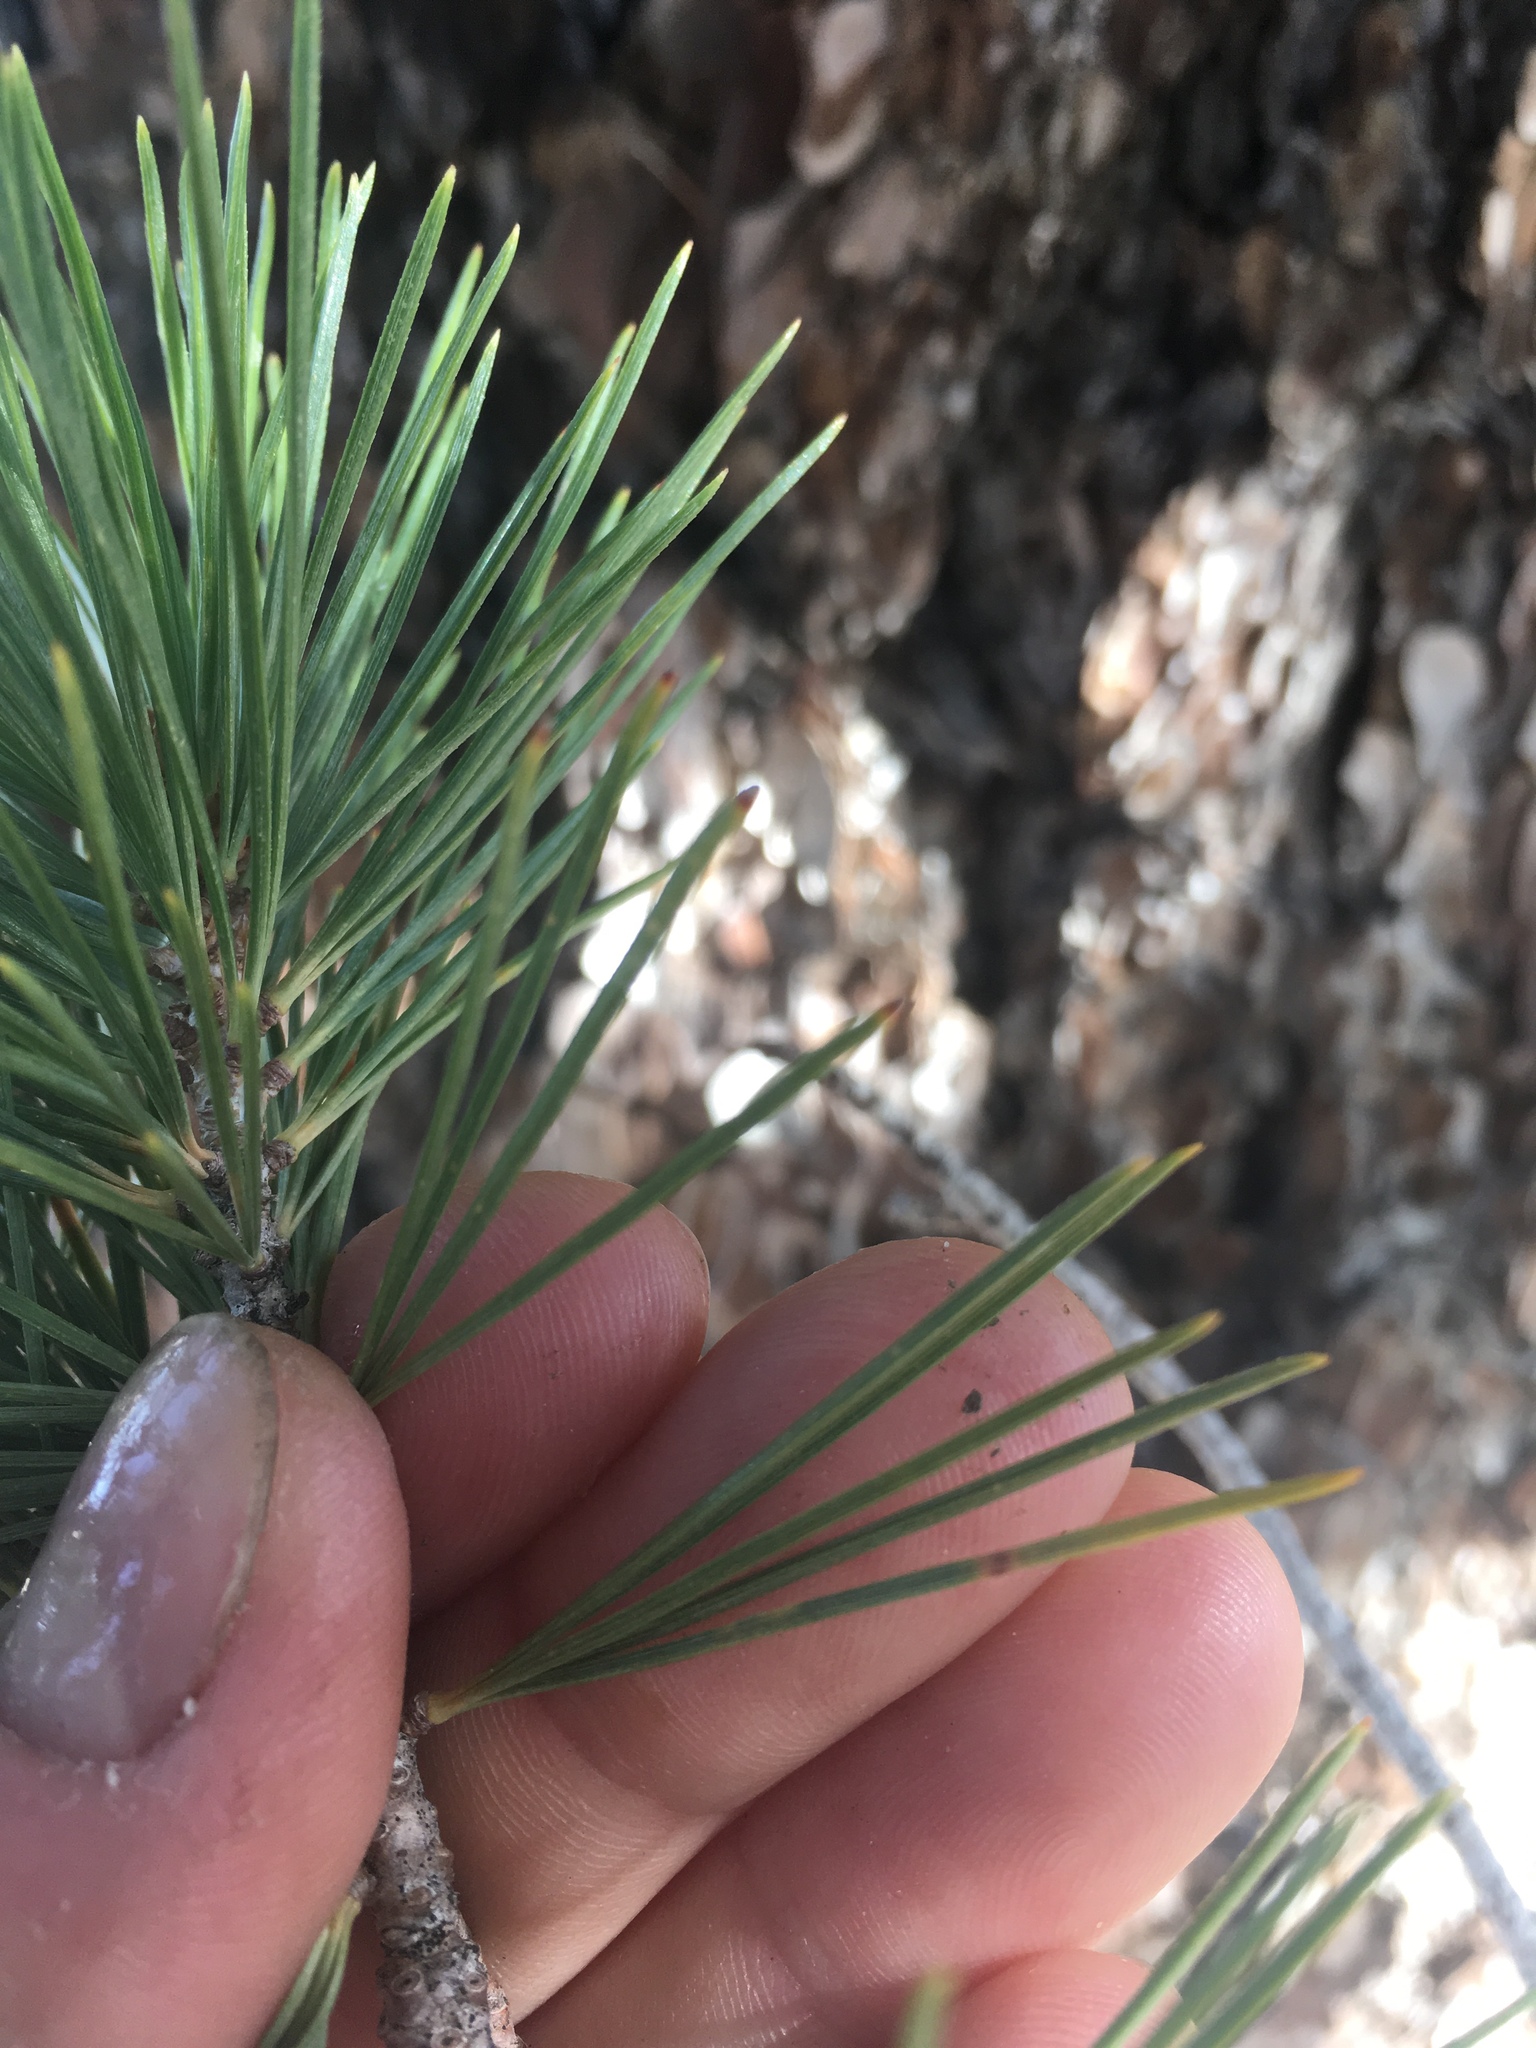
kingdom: Plantae
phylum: Tracheophyta
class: Pinopsida
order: Pinales
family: Pinaceae
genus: Pinus
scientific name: Pinus lambertiana
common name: Sugar pine
